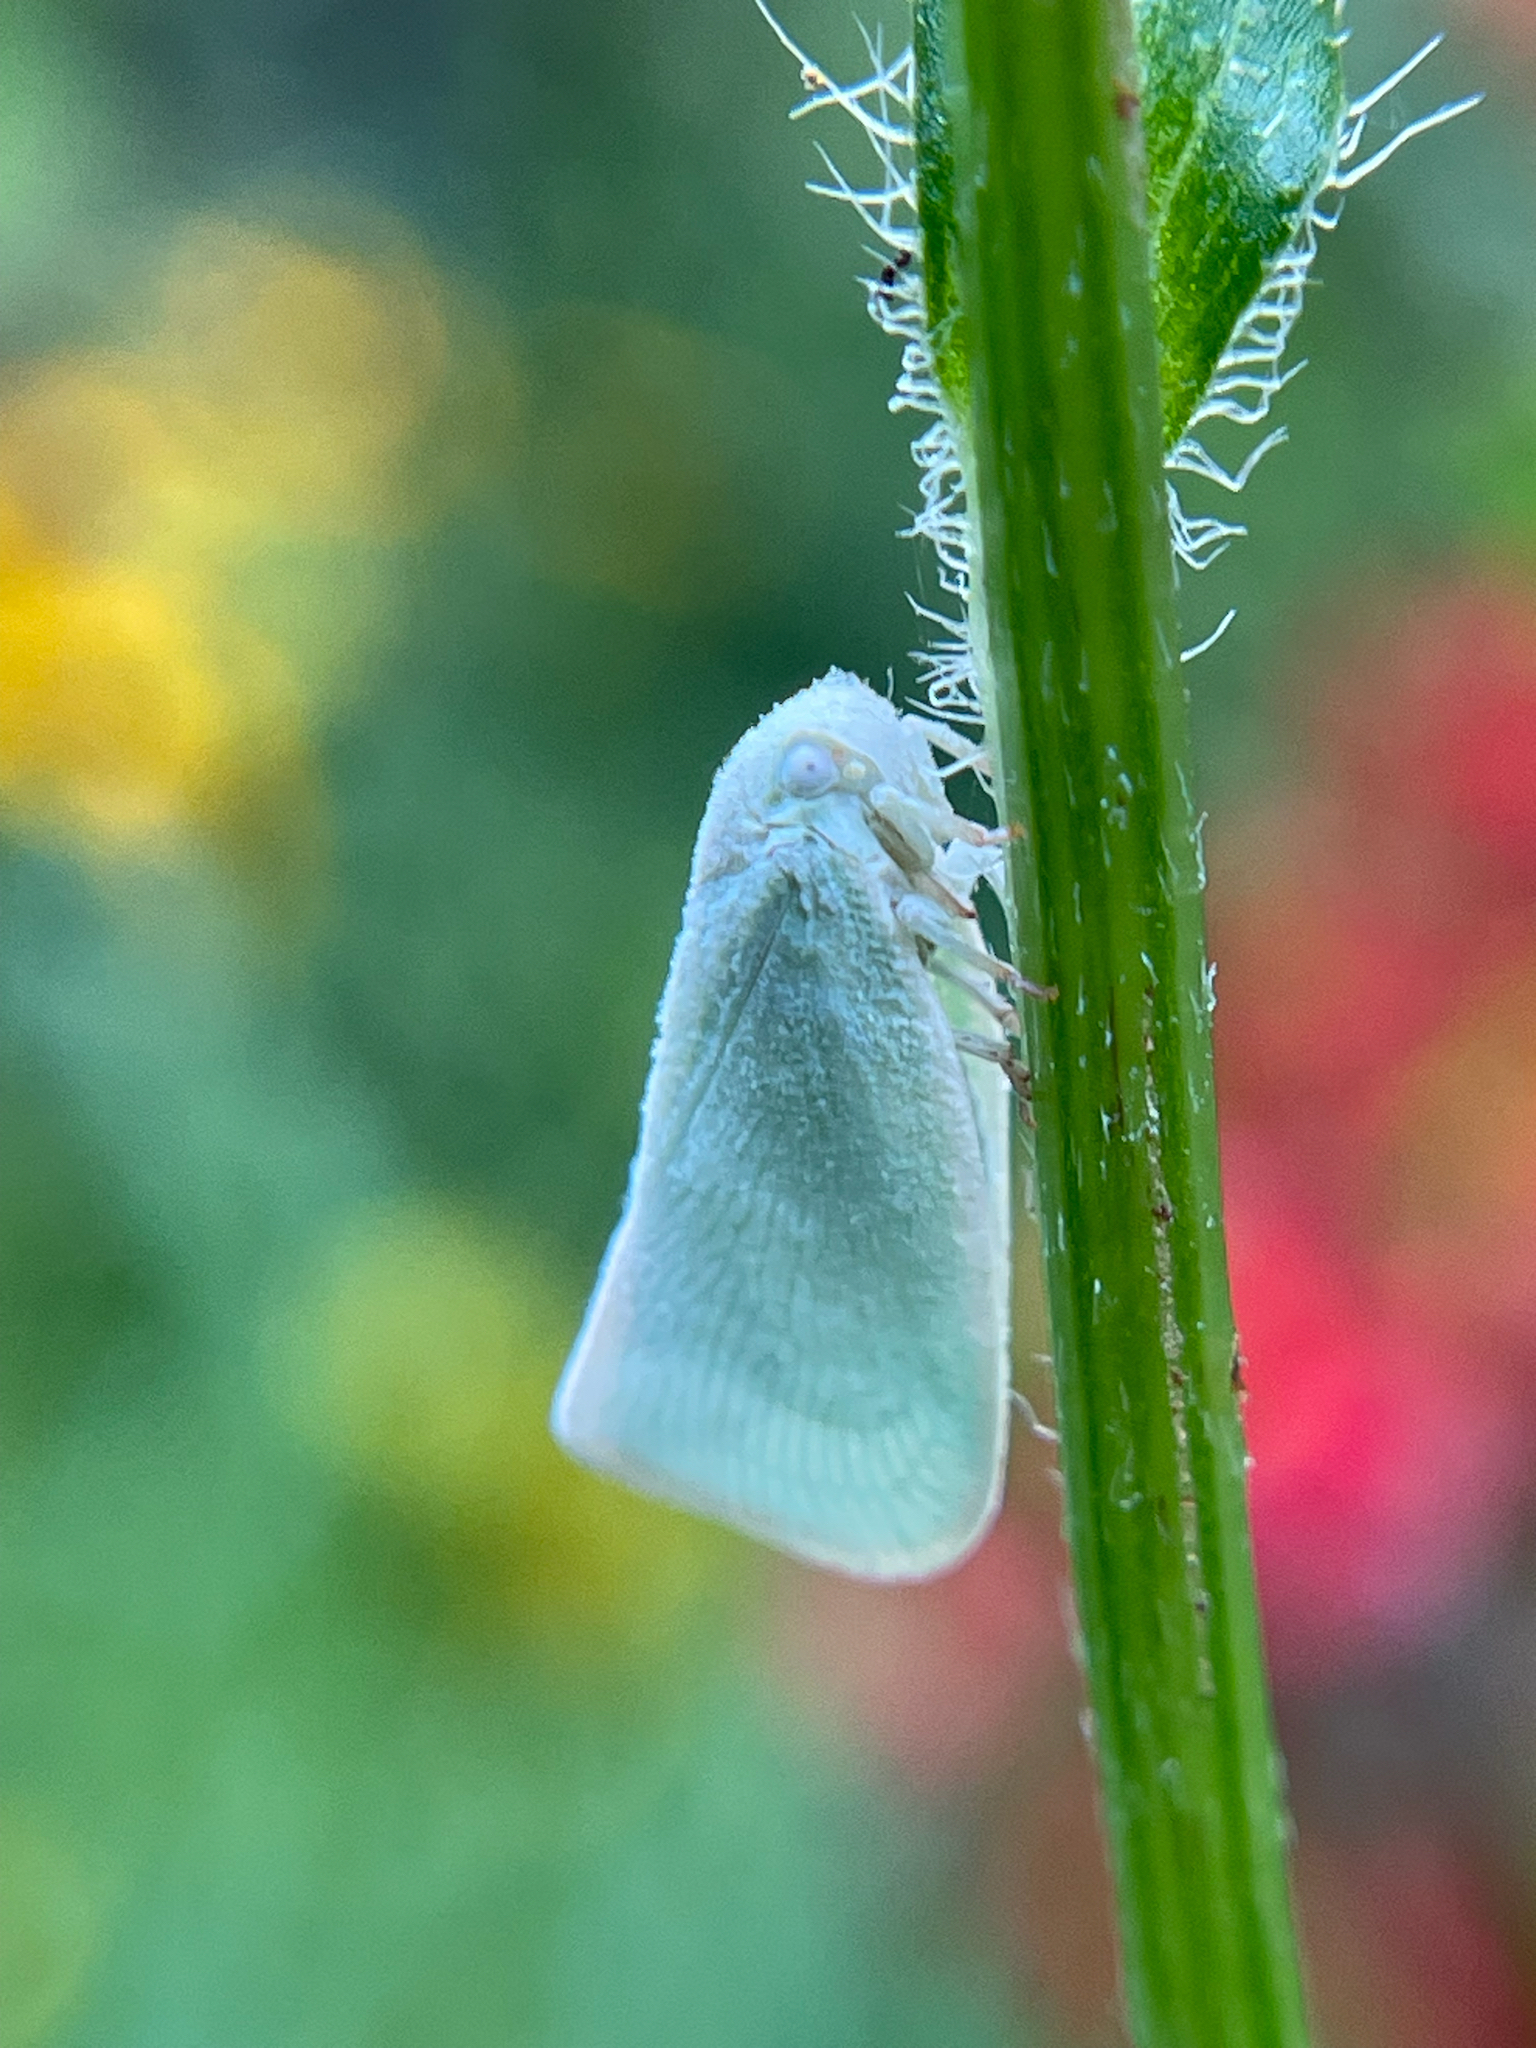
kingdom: Animalia
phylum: Arthropoda
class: Insecta
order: Hemiptera
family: Flatidae
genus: Flatormenis
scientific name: Flatormenis proxima
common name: Northern flatid planthopper
